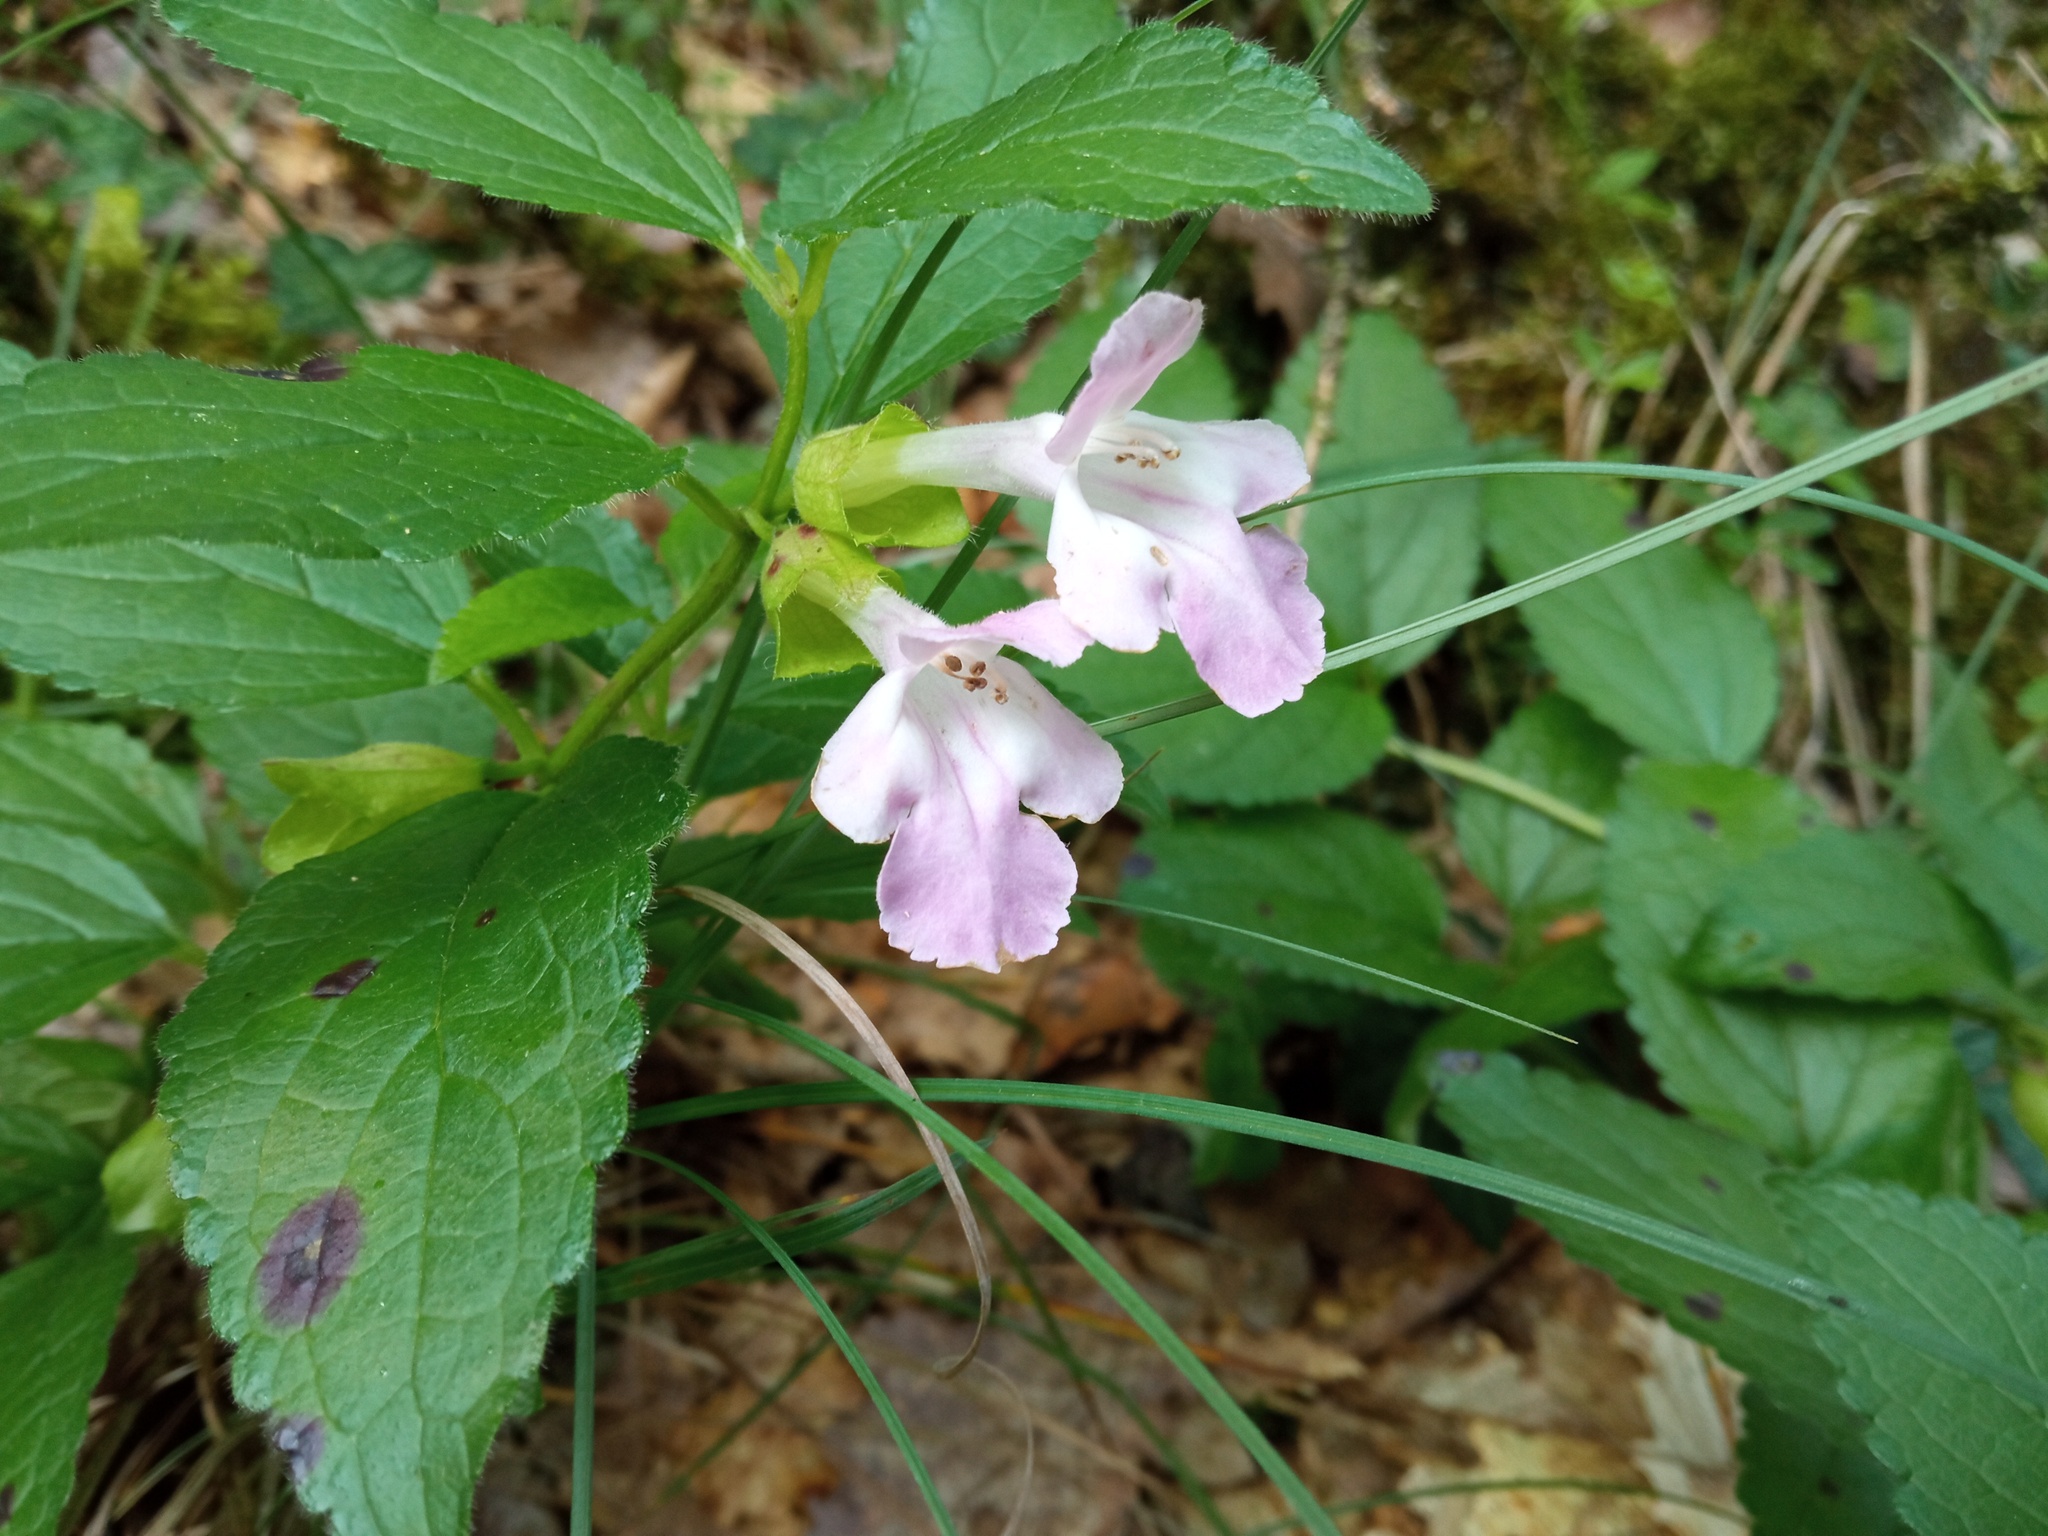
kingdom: Plantae
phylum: Tracheophyta
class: Magnoliopsida
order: Lamiales
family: Lamiaceae
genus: Melittis
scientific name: Melittis melissophyllum
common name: Bastard balm
